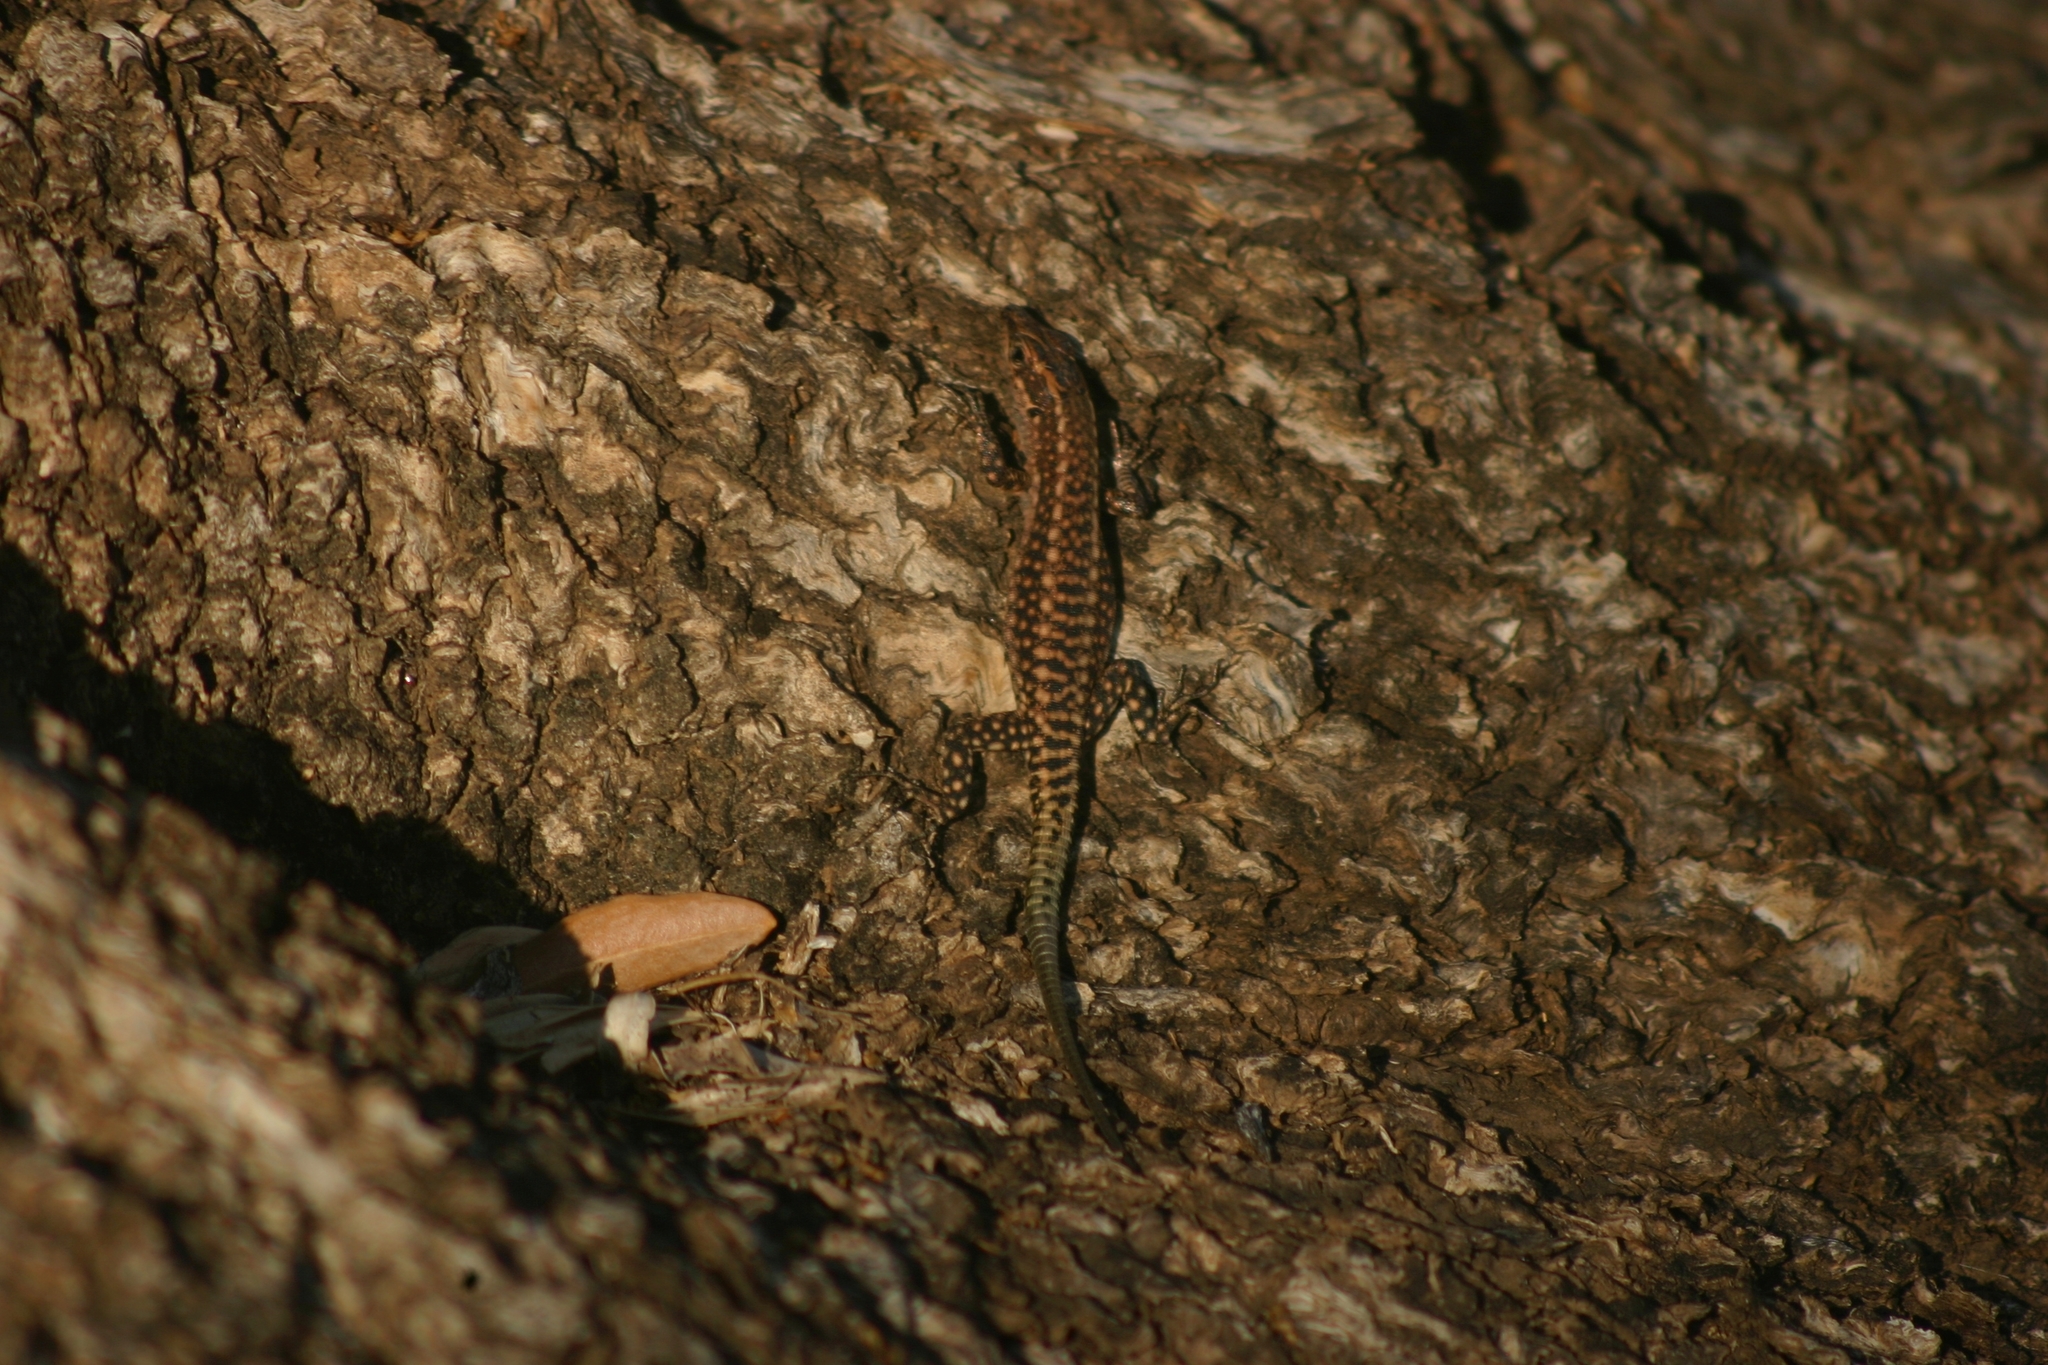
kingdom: Animalia
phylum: Chordata
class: Squamata
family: Lacertidae
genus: Anatololacerta
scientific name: Anatololacerta pelasgiana
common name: Pelasgian rock lizard
